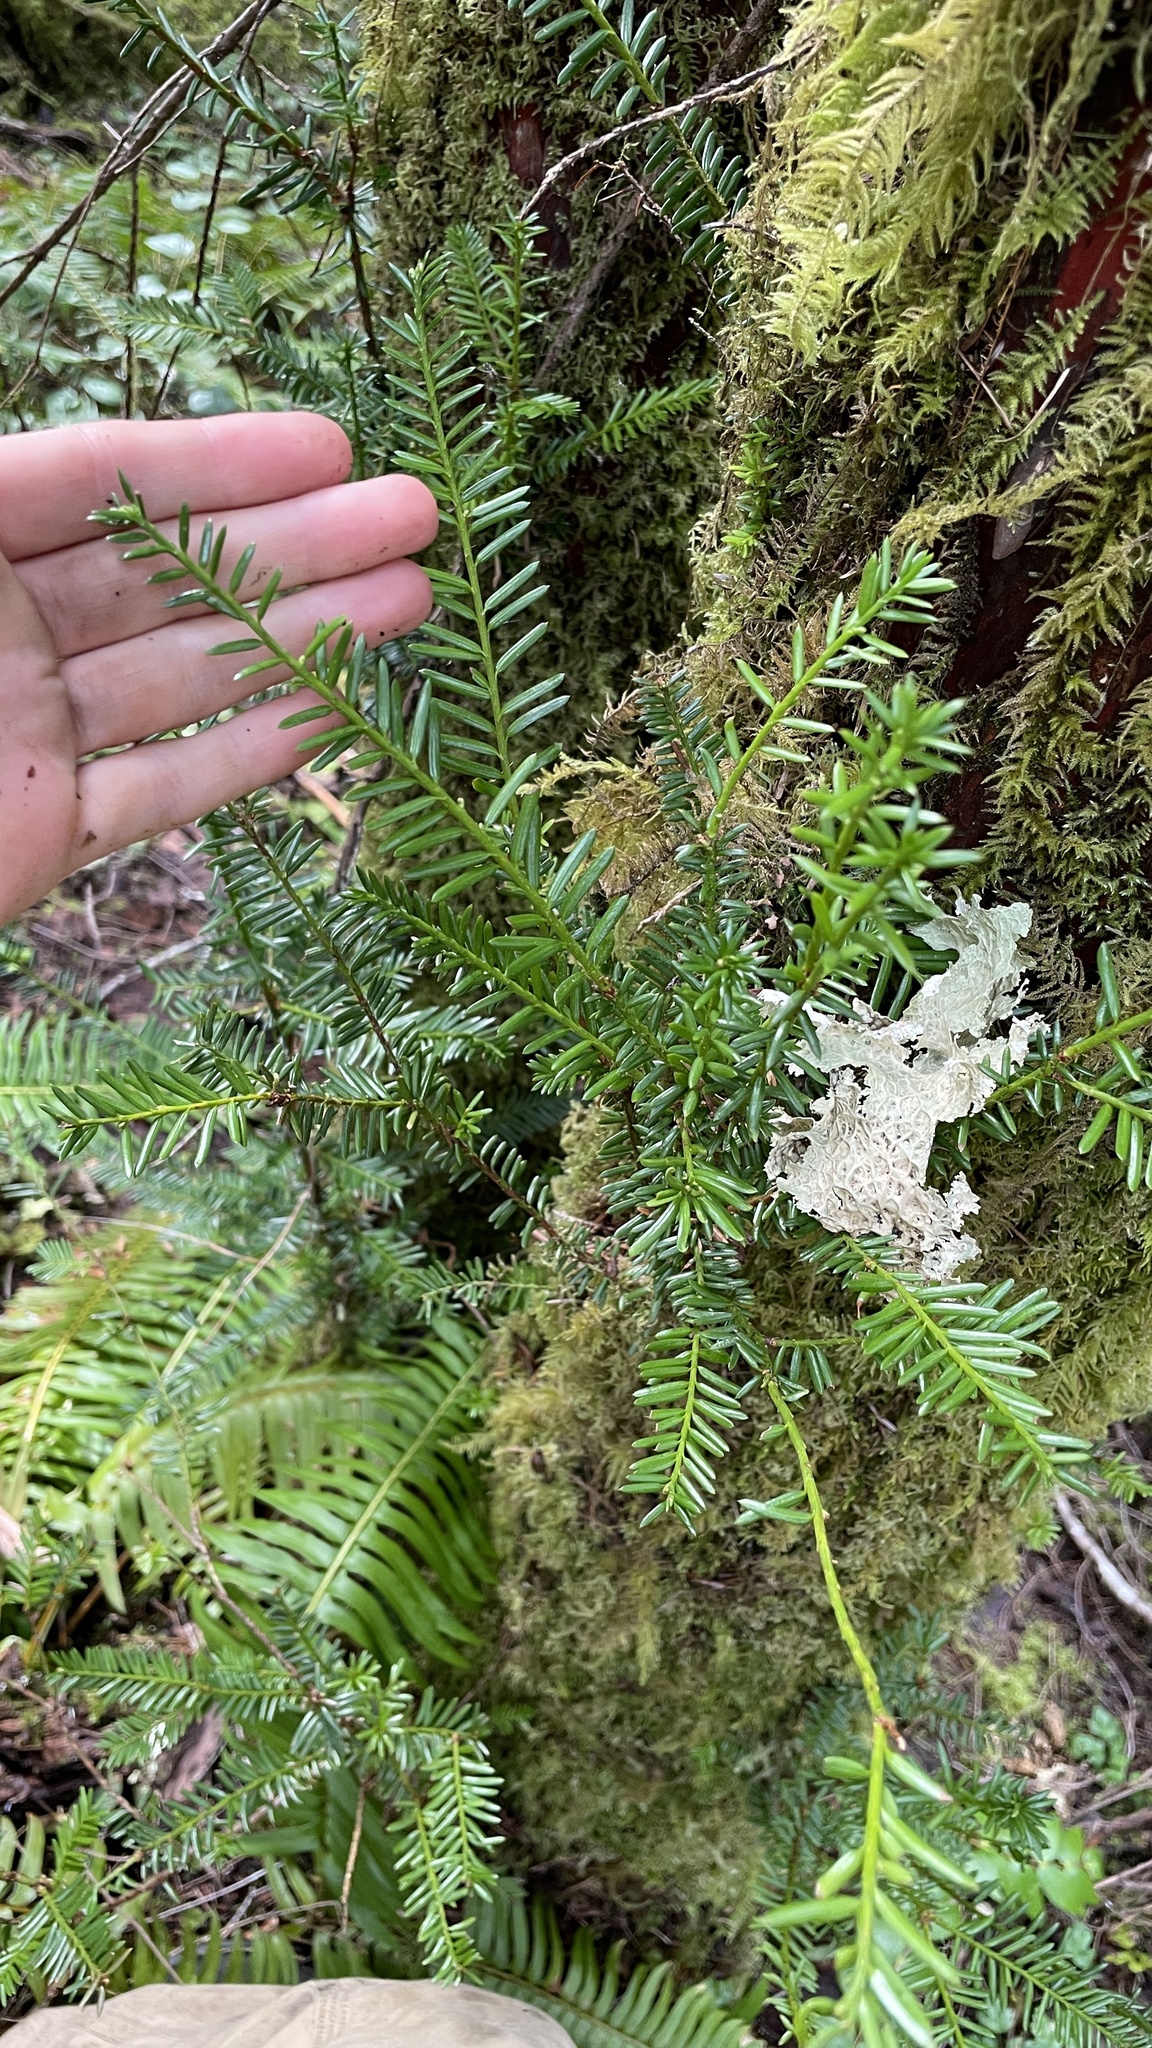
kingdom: Plantae
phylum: Tracheophyta
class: Pinopsida
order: Pinales
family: Taxaceae
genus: Taxus
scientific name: Taxus brevifolia
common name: Pacific yew
